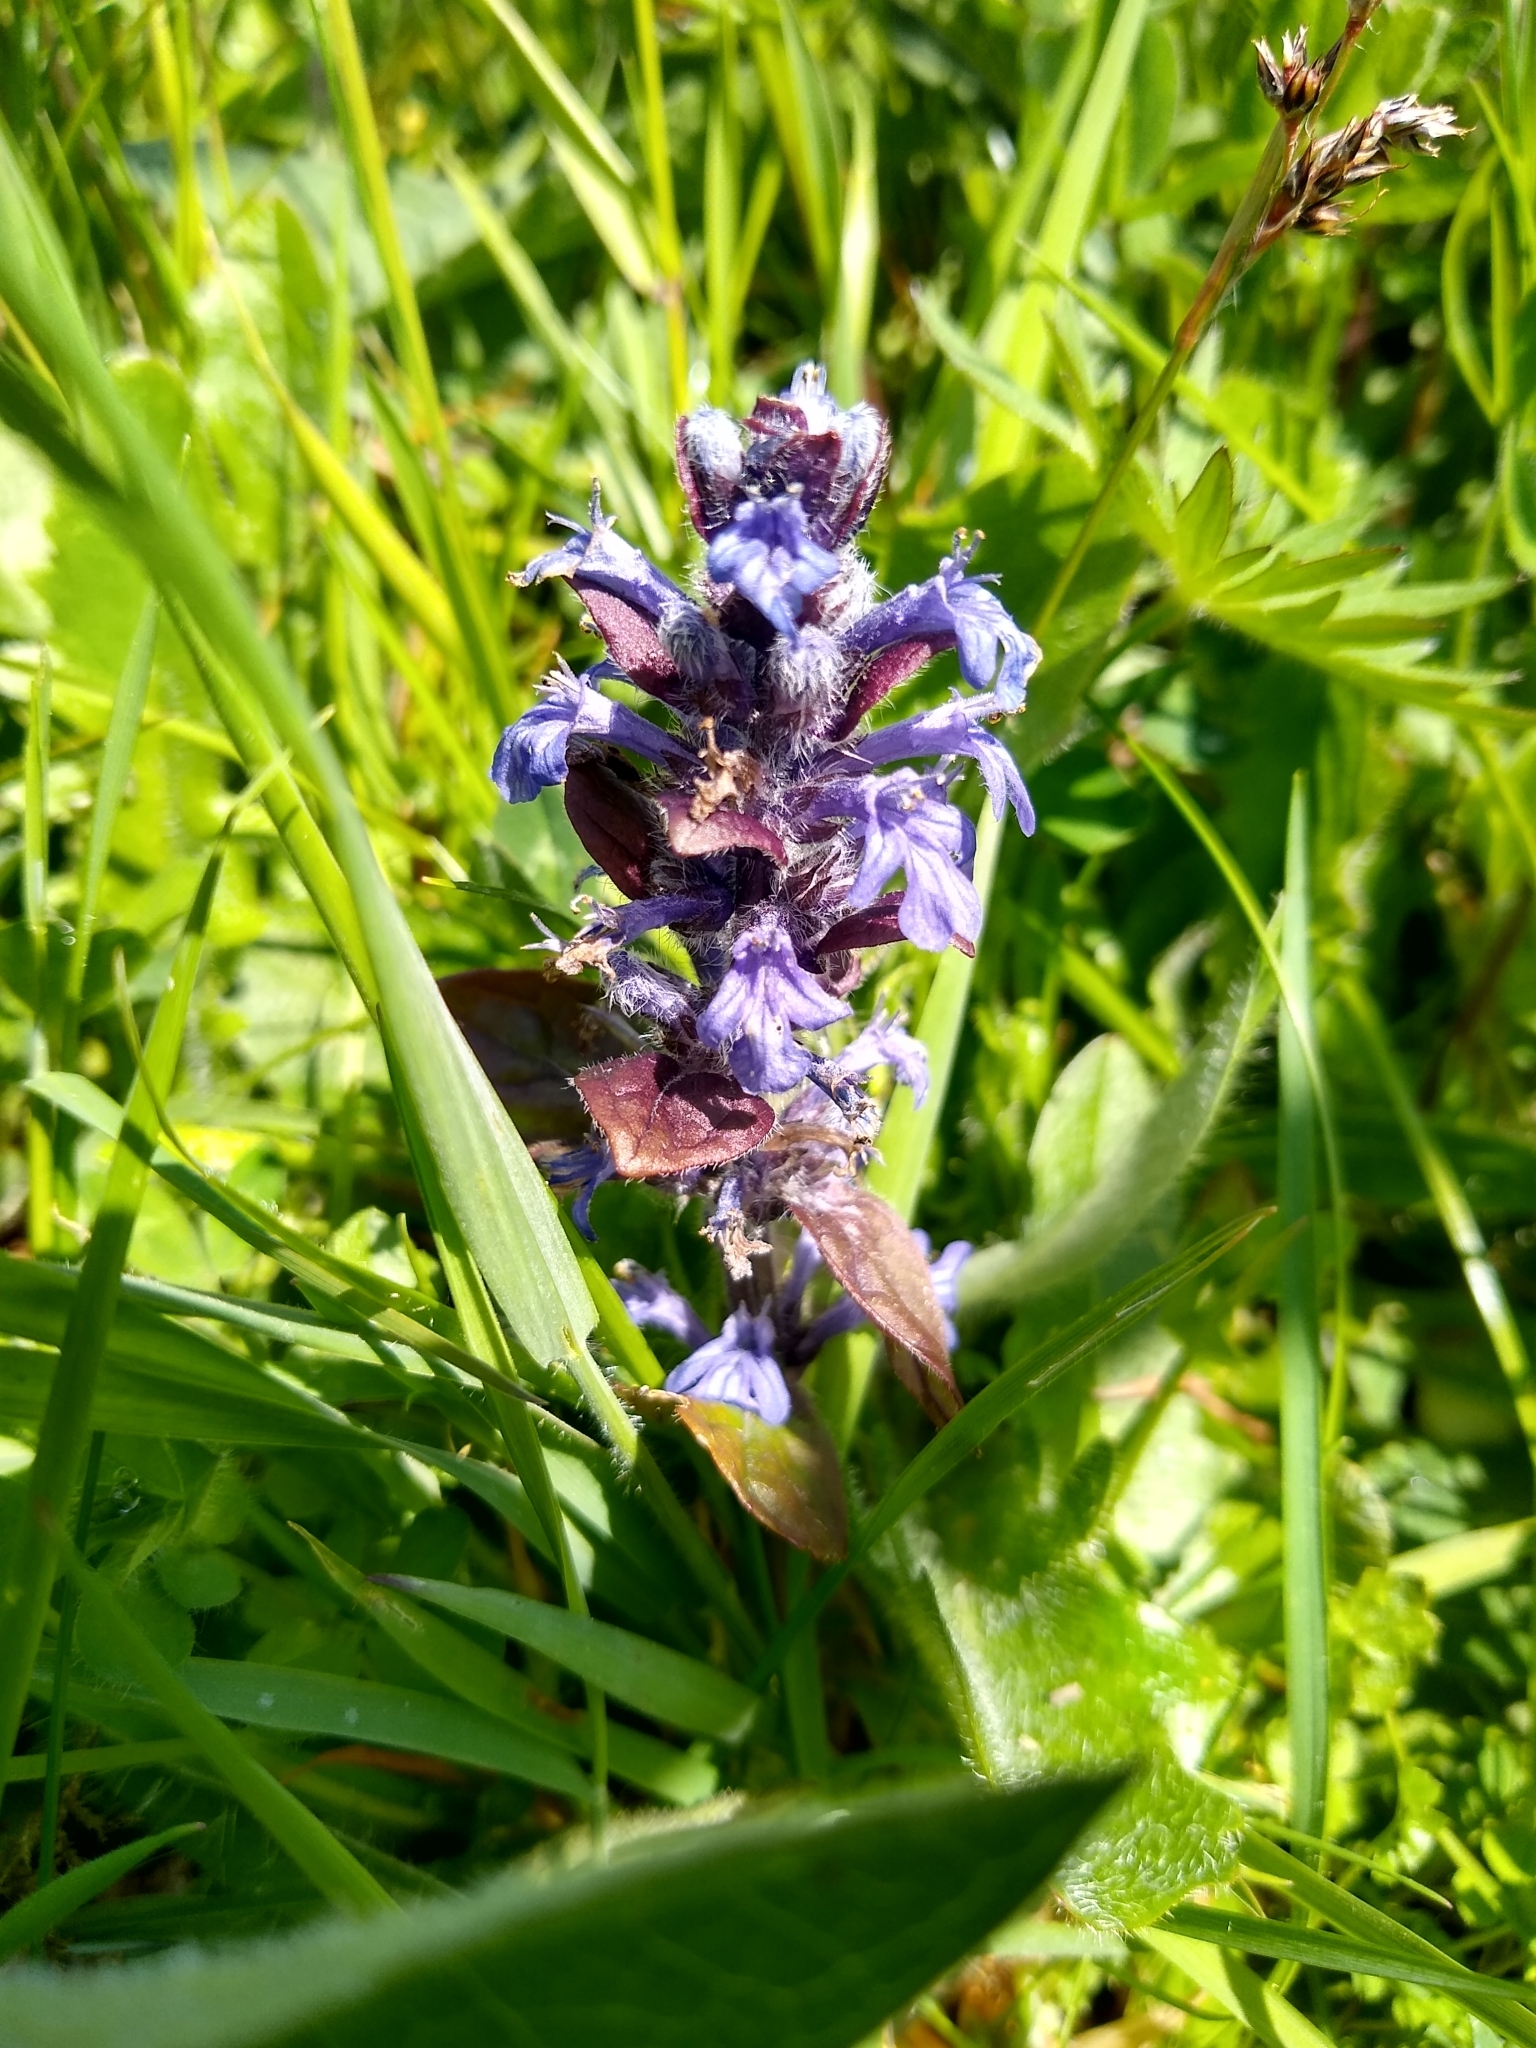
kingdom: Plantae
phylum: Tracheophyta
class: Magnoliopsida
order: Lamiales
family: Lamiaceae
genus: Ajuga
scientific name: Ajuga reptans
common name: Bugle
